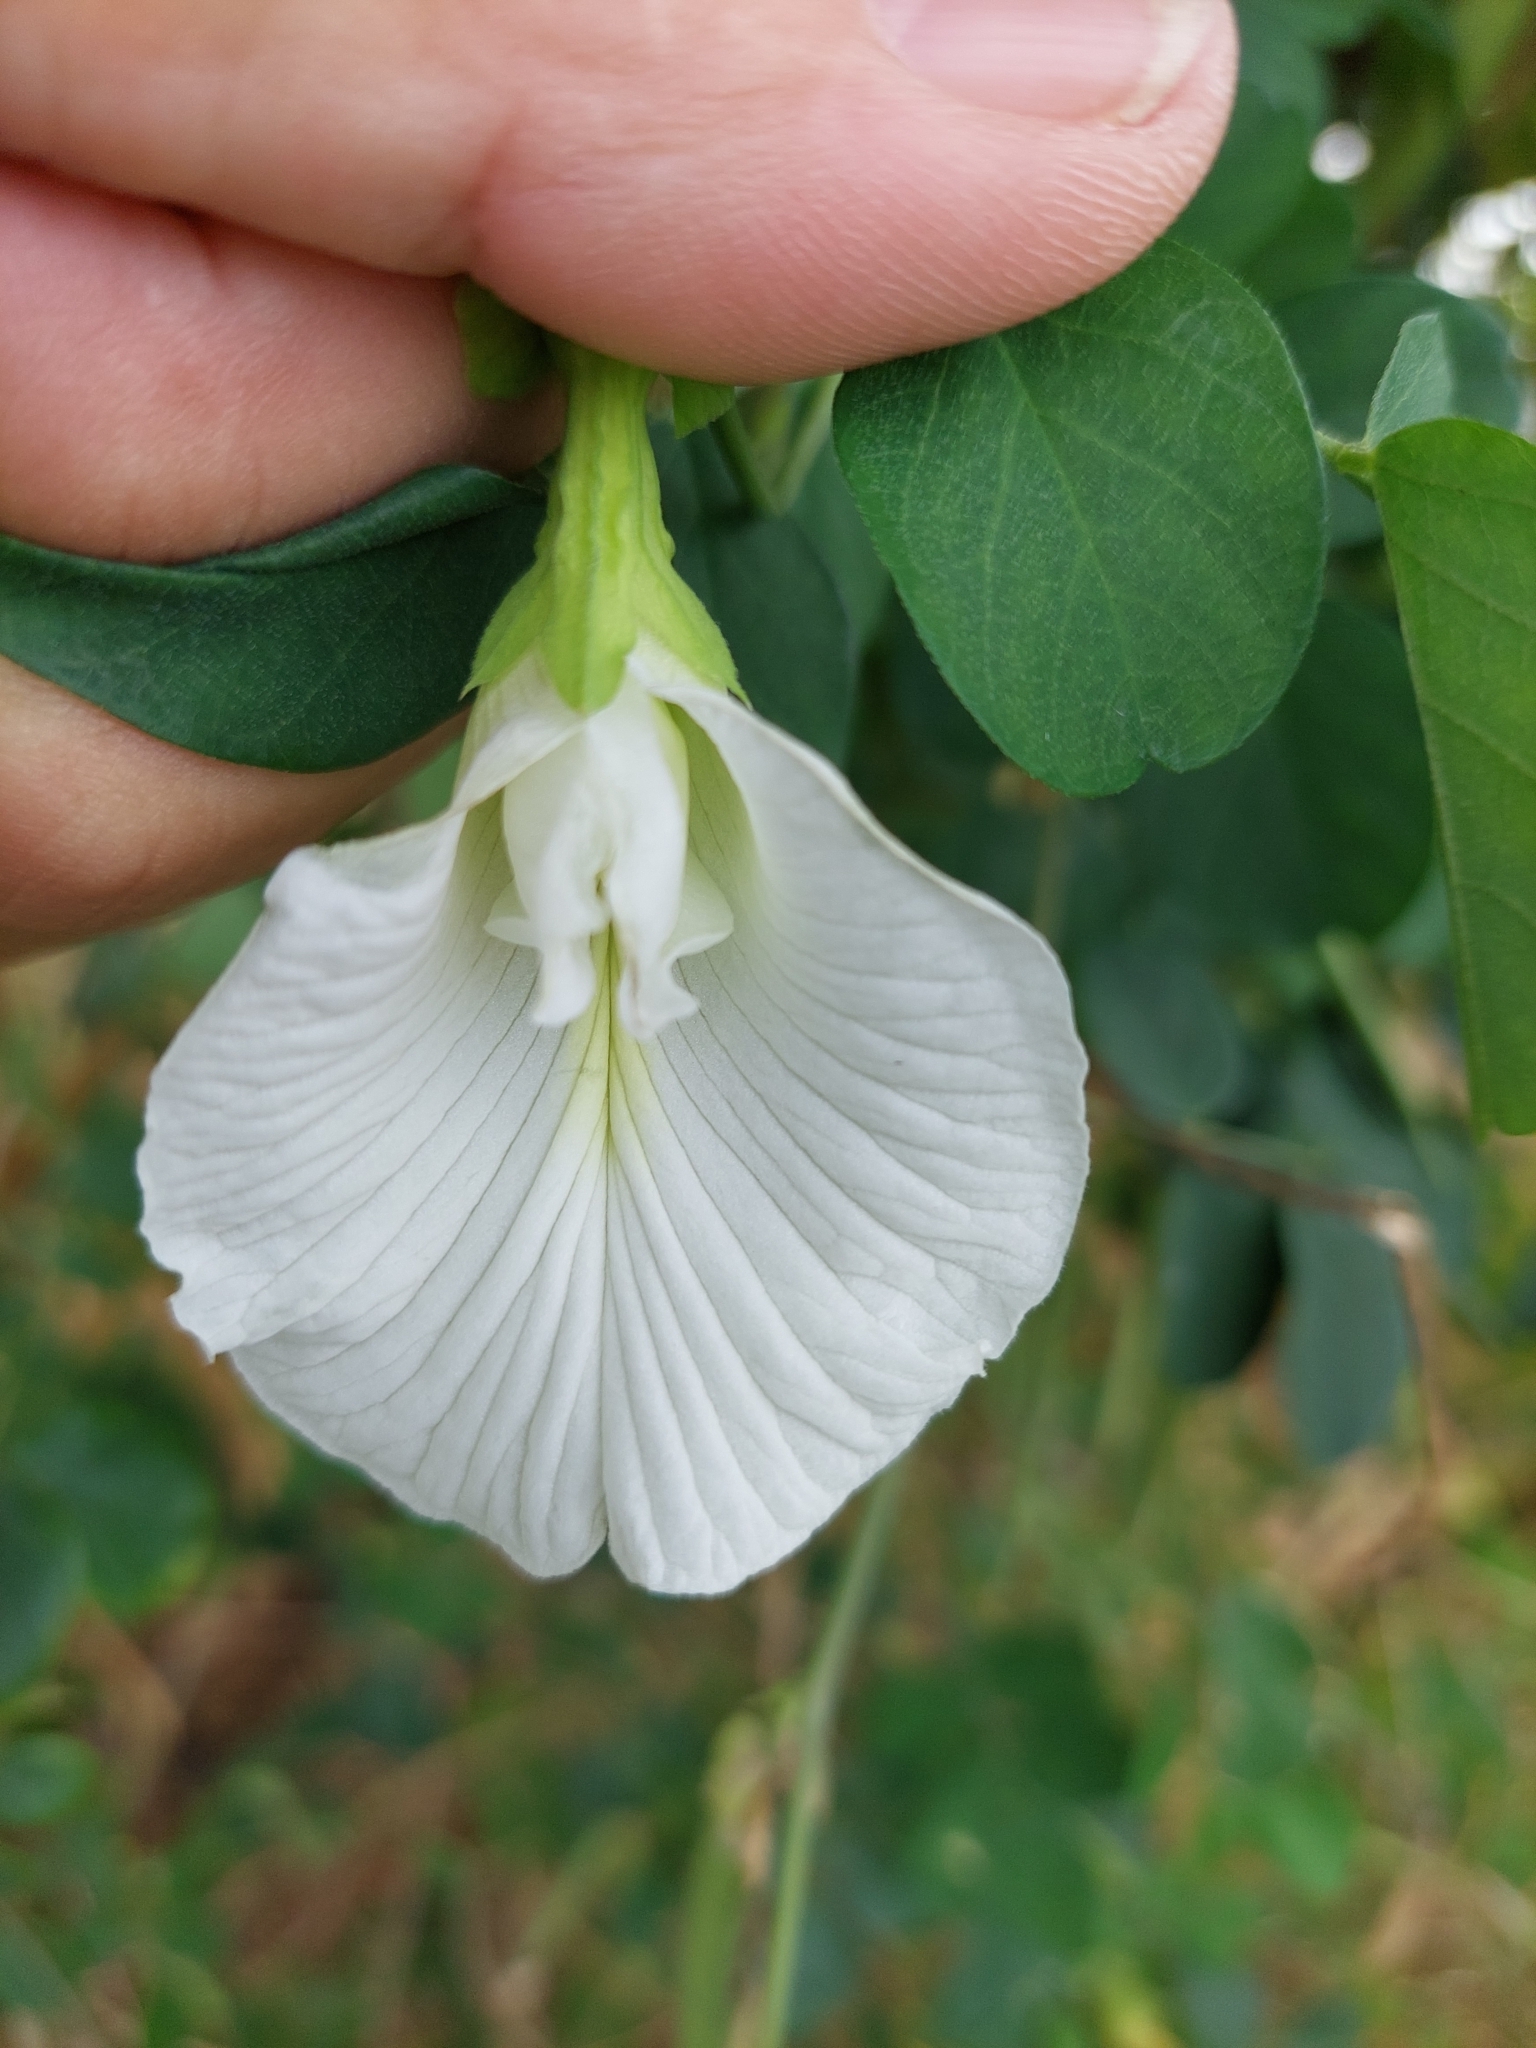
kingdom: Plantae
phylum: Tracheophyta
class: Magnoliopsida
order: Fabales
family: Fabaceae
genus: Clitoria
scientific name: Clitoria ternatea
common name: Asian pigeonwings
